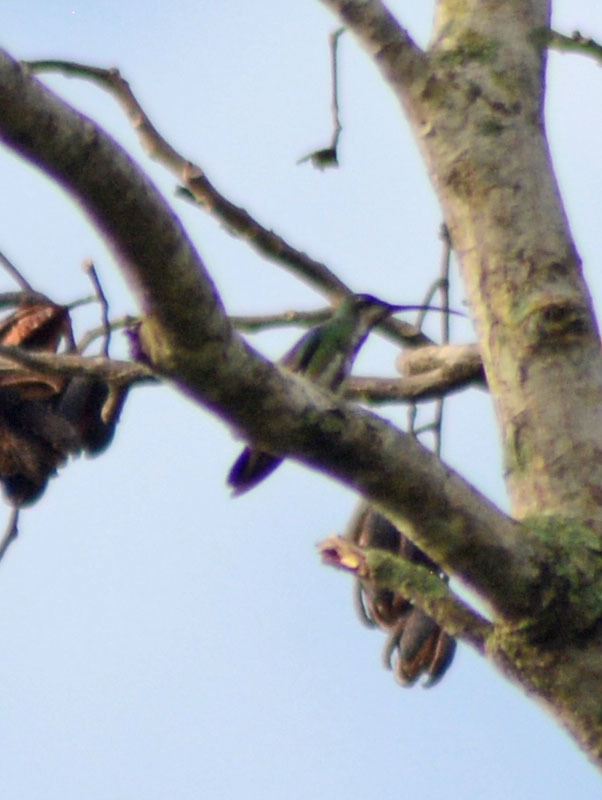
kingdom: Animalia
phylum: Chordata
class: Aves
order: Apodiformes
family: Trochilidae
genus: Anthracothorax
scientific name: Anthracothorax prevostii
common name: Green-breasted mango
